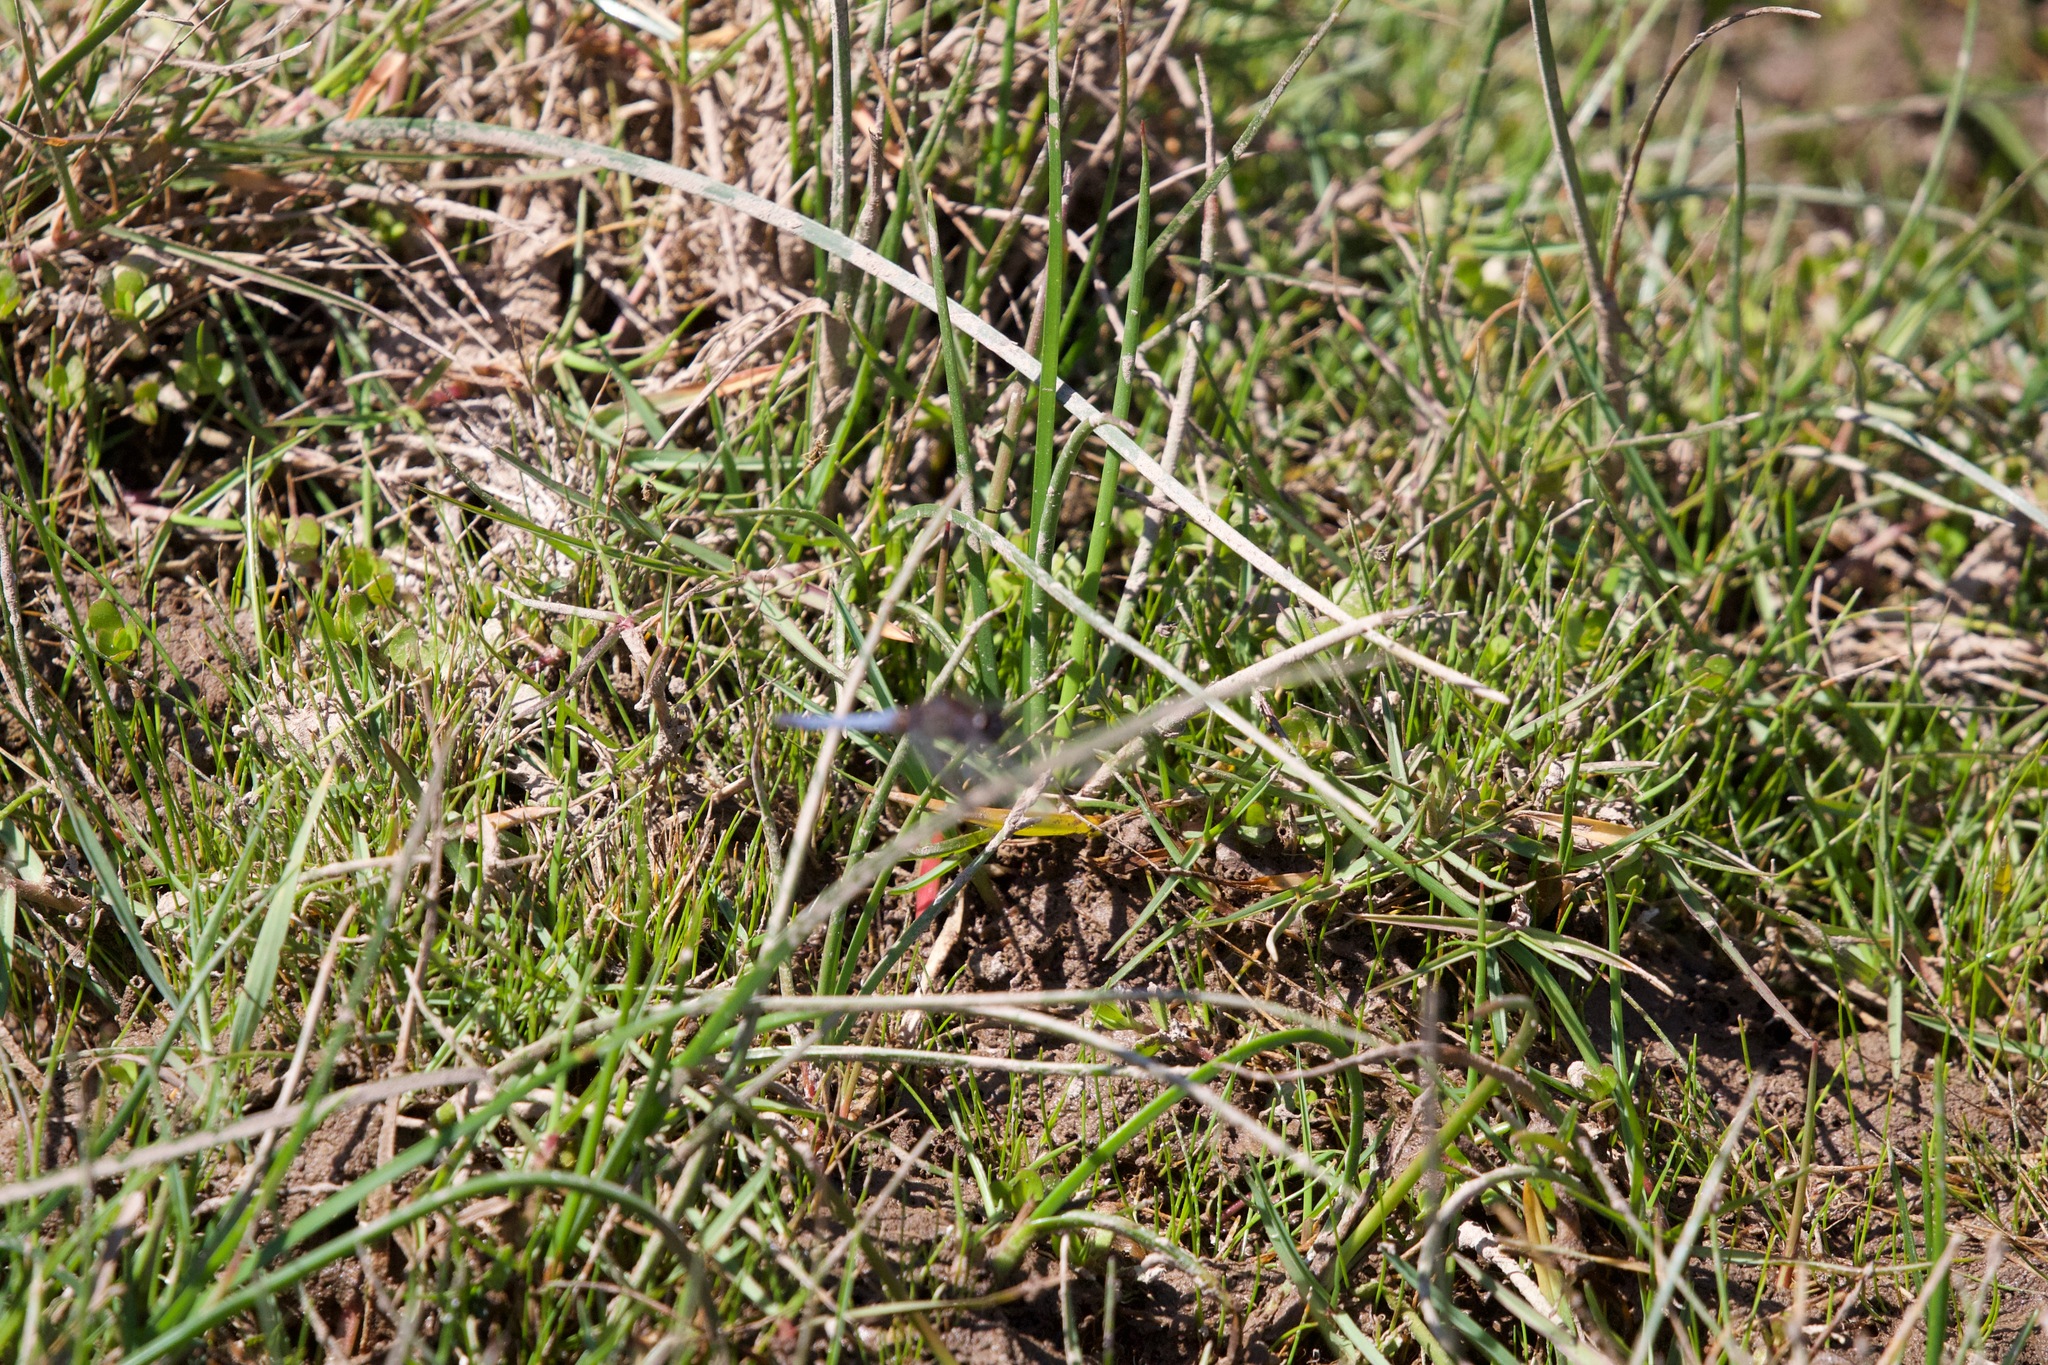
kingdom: Animalia
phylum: Arthropoda
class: Insecta
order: Odonata
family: Libellulidae
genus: Erythrodiplax
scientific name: Erythrodiplax connata
